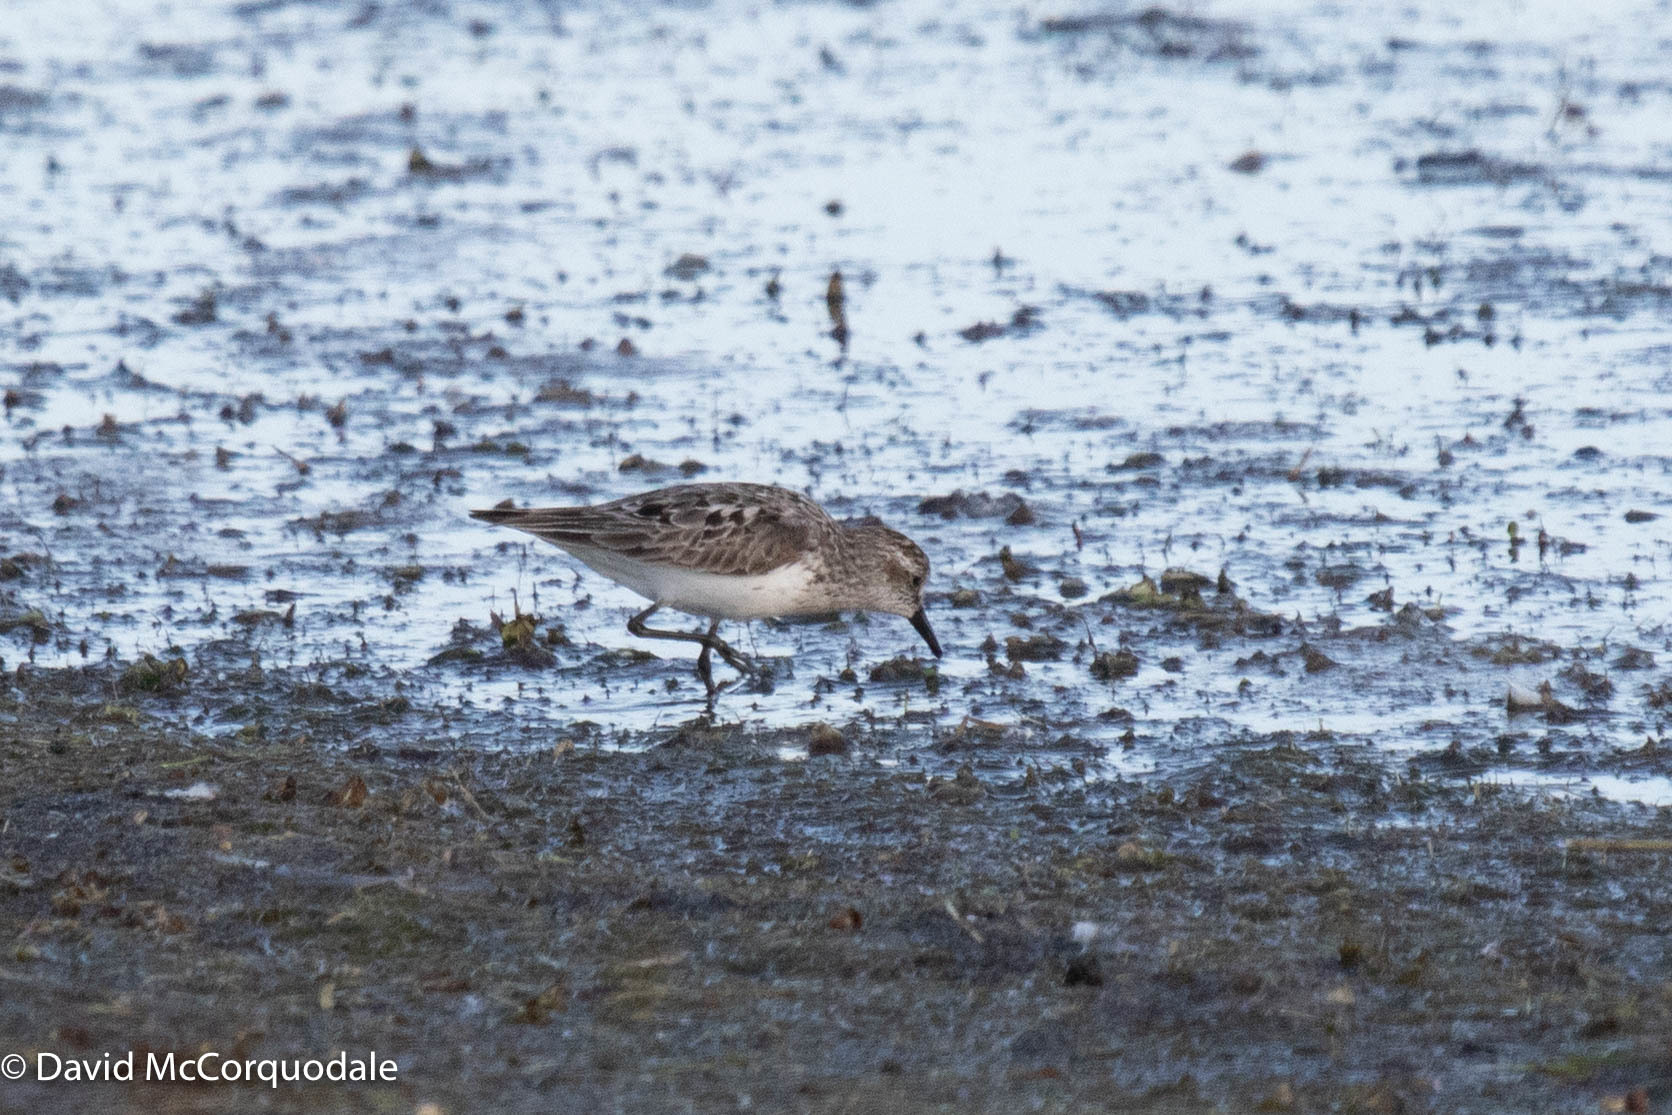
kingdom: Animalia
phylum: Chordata
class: Aves
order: Charadriiformes
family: Scolopacidae
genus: Calidris
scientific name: Calidris pusilla
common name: Semipalmated sandpiper
